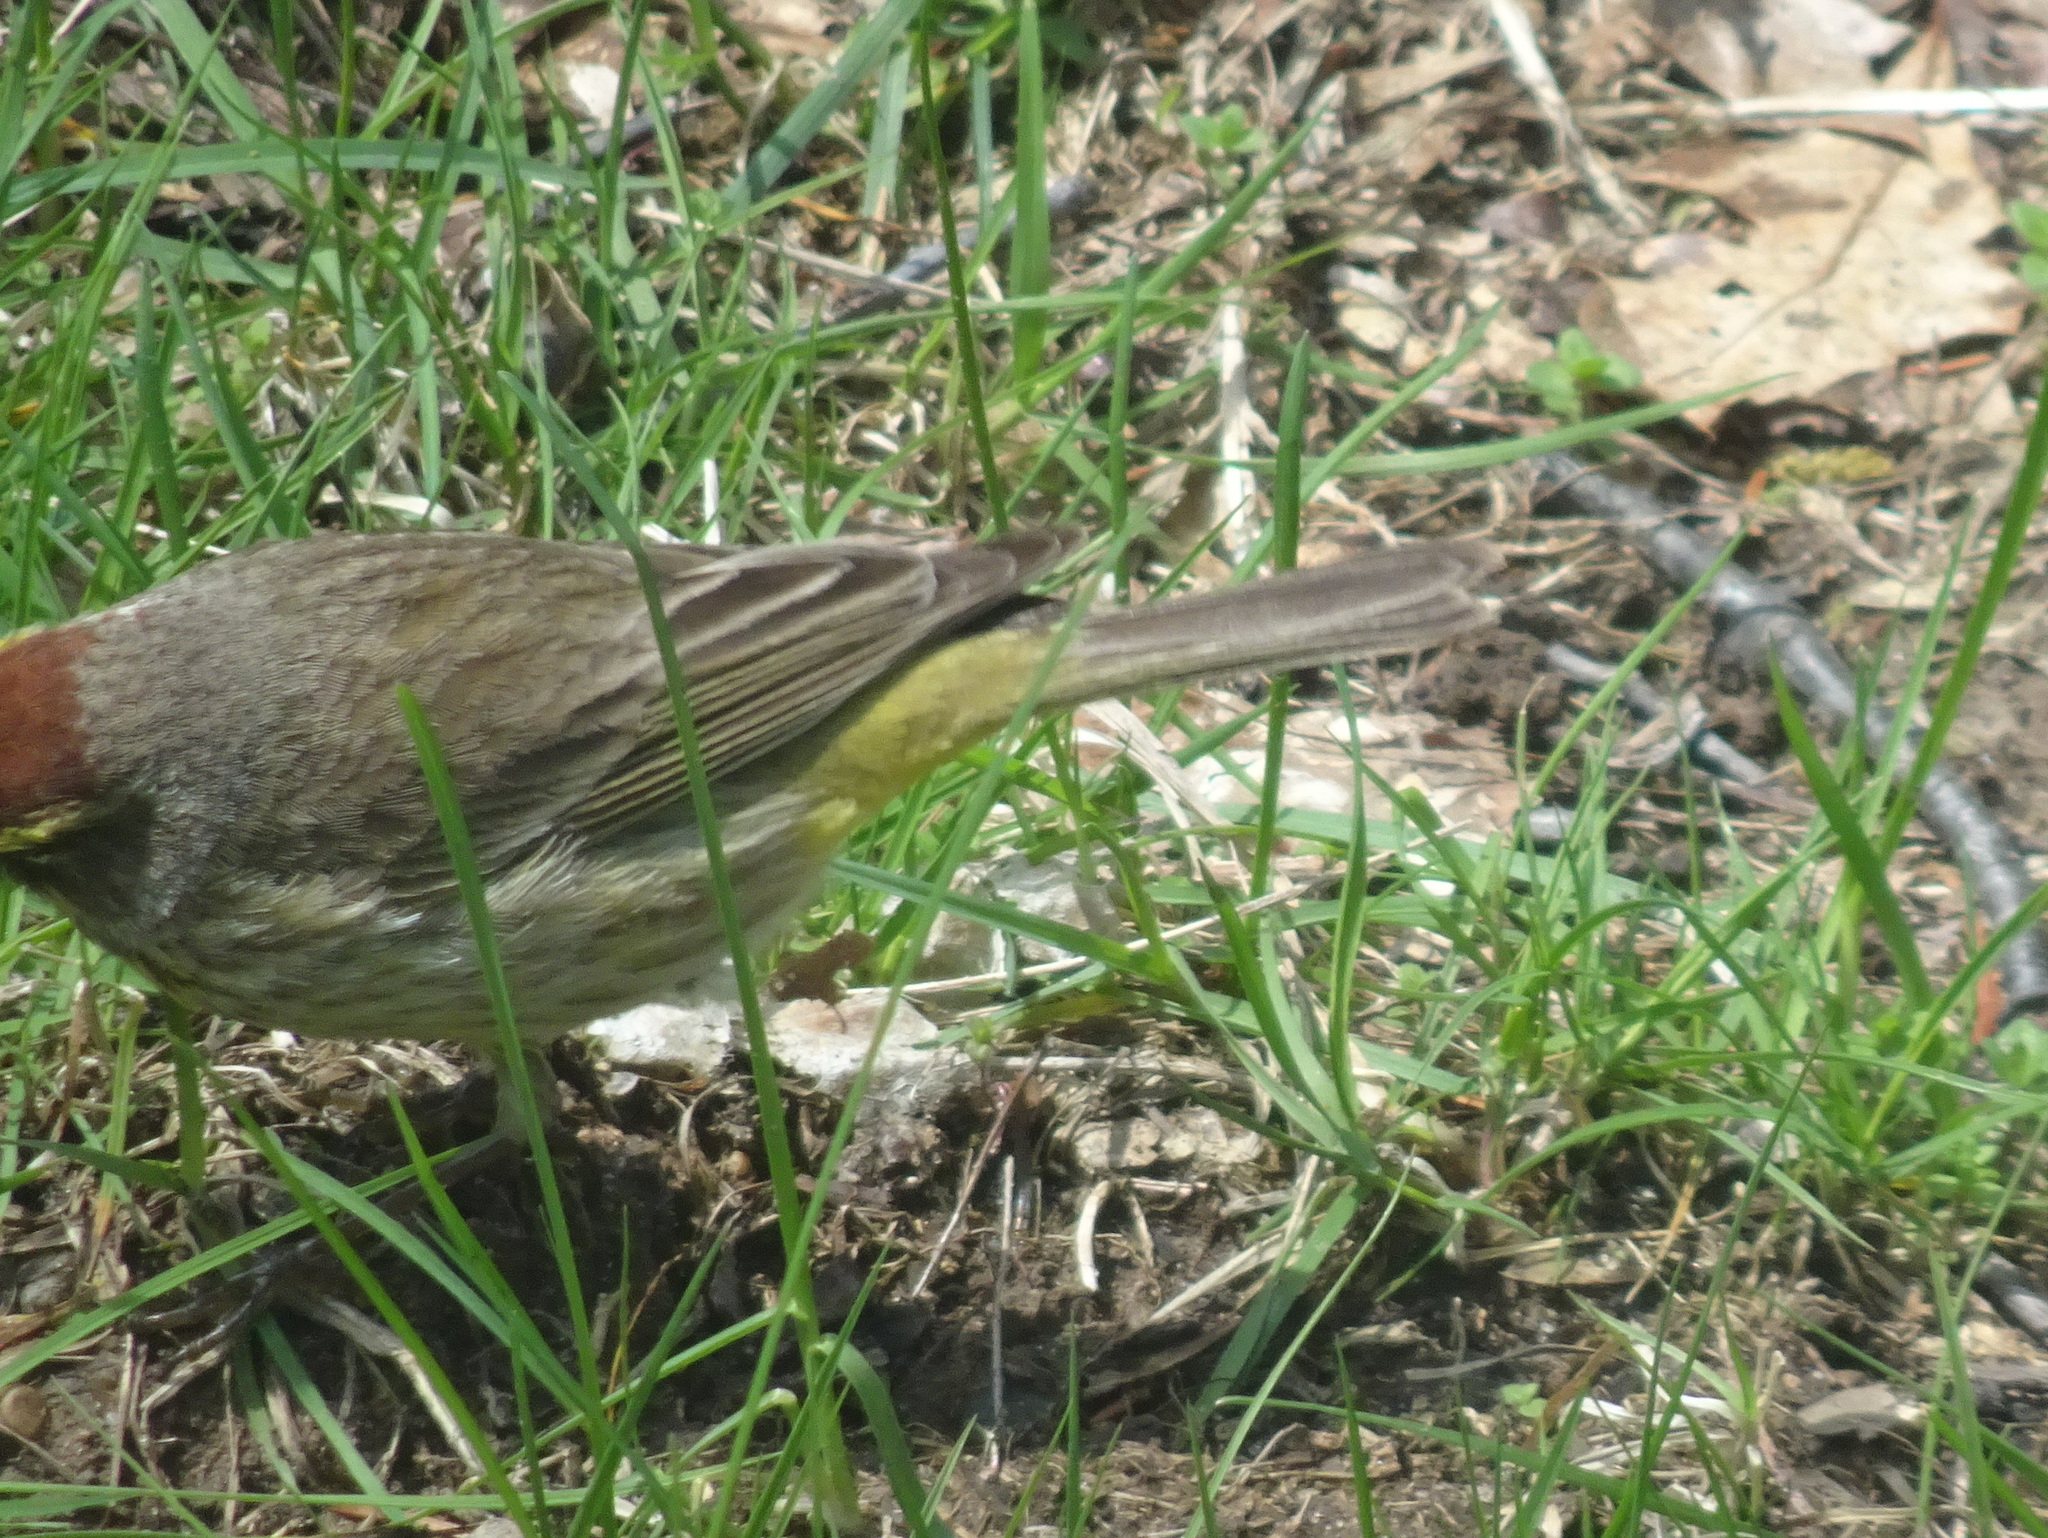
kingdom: Animalia
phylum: Chordata
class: Aves
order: Passeriformes
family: Parulidae
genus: Setophaga
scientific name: Setophaga palmarum
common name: Palm warbler
